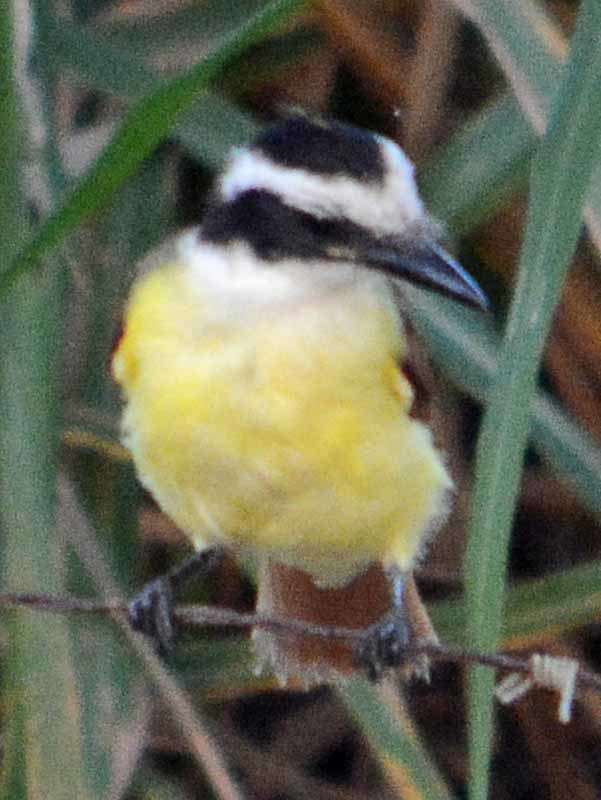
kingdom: Animalia
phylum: Chordata
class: Aves
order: Passeriformes
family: Tyrannidae
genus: Pitangus
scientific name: Pitangus sulphuratus
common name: Great kiskadee
